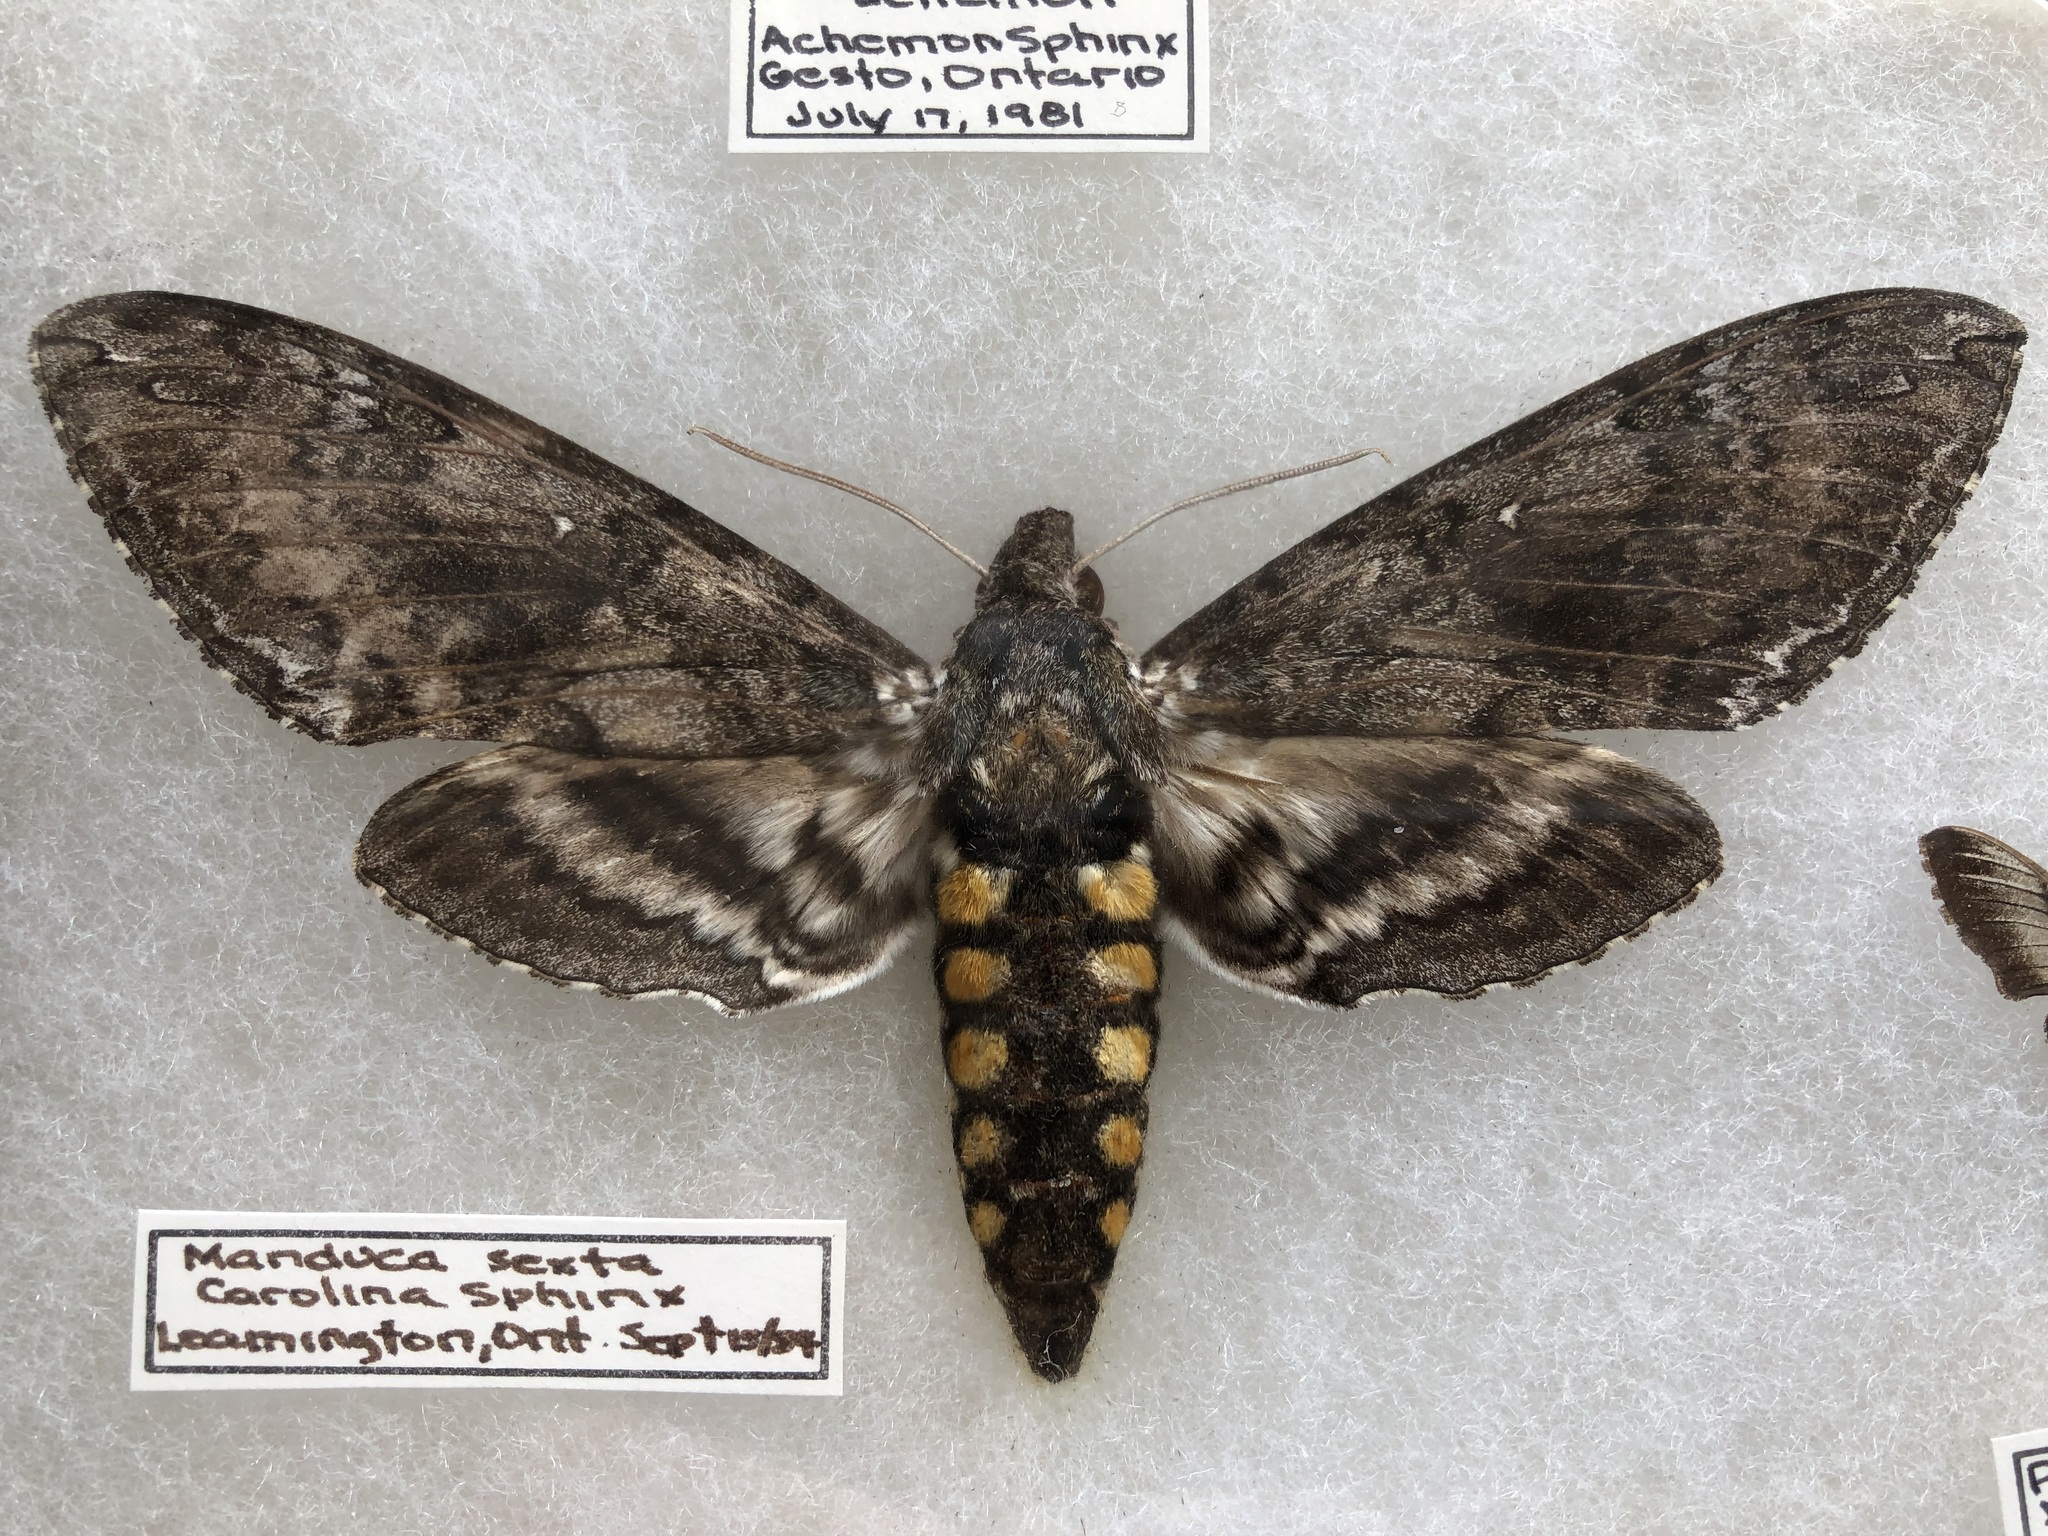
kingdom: Animalia
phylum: Arthropoda
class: Insecta
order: Lepidoptera
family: Sphingidae
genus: Manduca
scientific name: Manduca sexta
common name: Carolina sphinx
